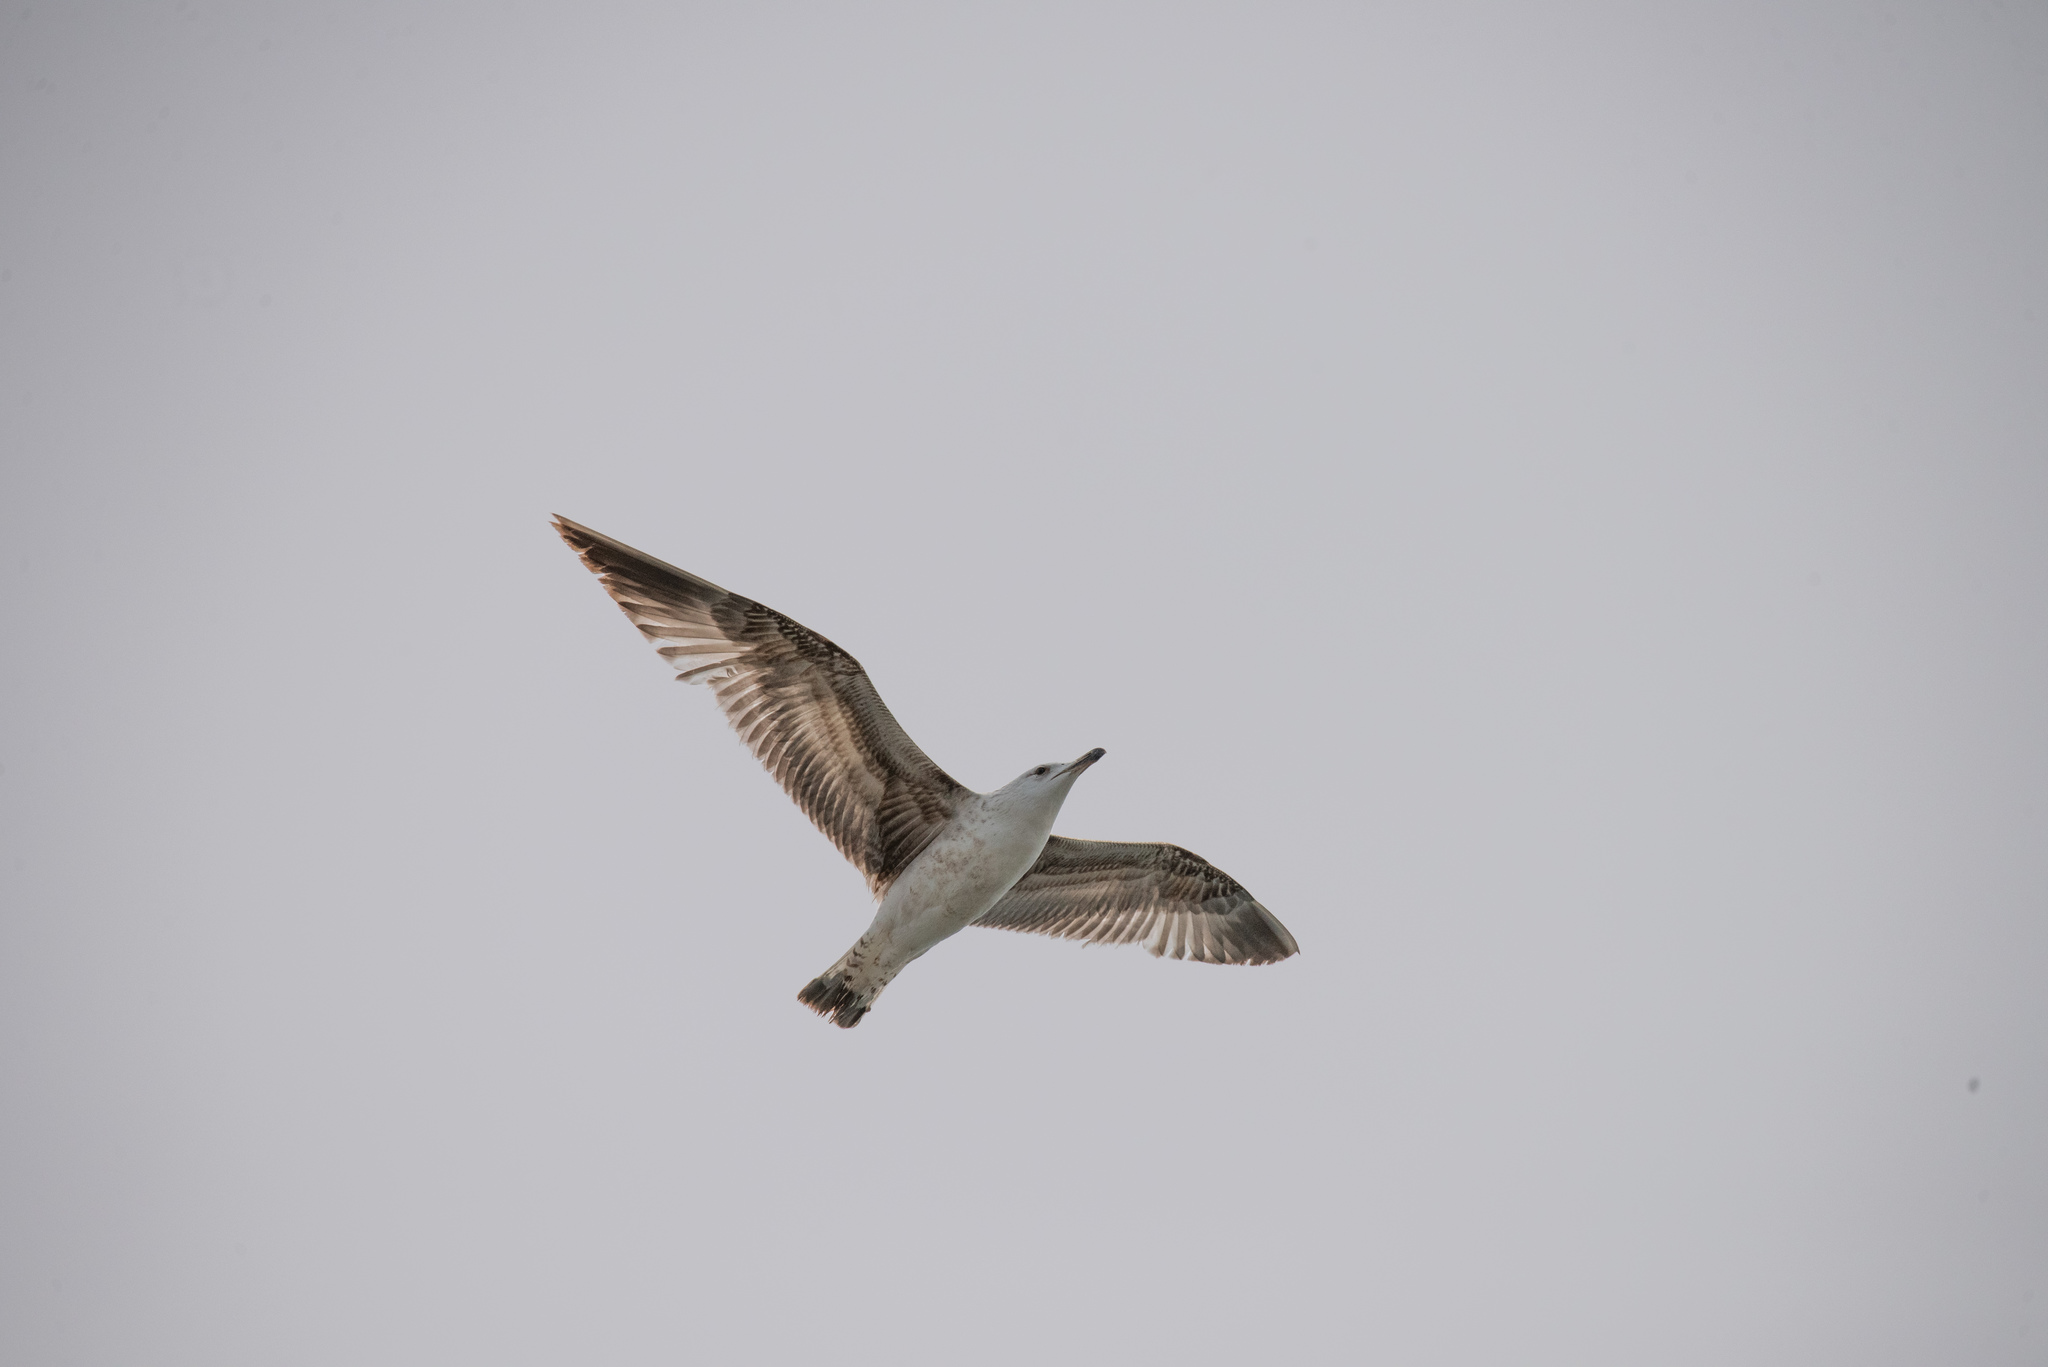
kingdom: Animalia
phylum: Chordata
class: Aves
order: Charadriiformes
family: Laridae
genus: Larus
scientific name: Larus michahellis
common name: Yellow-legged gull
